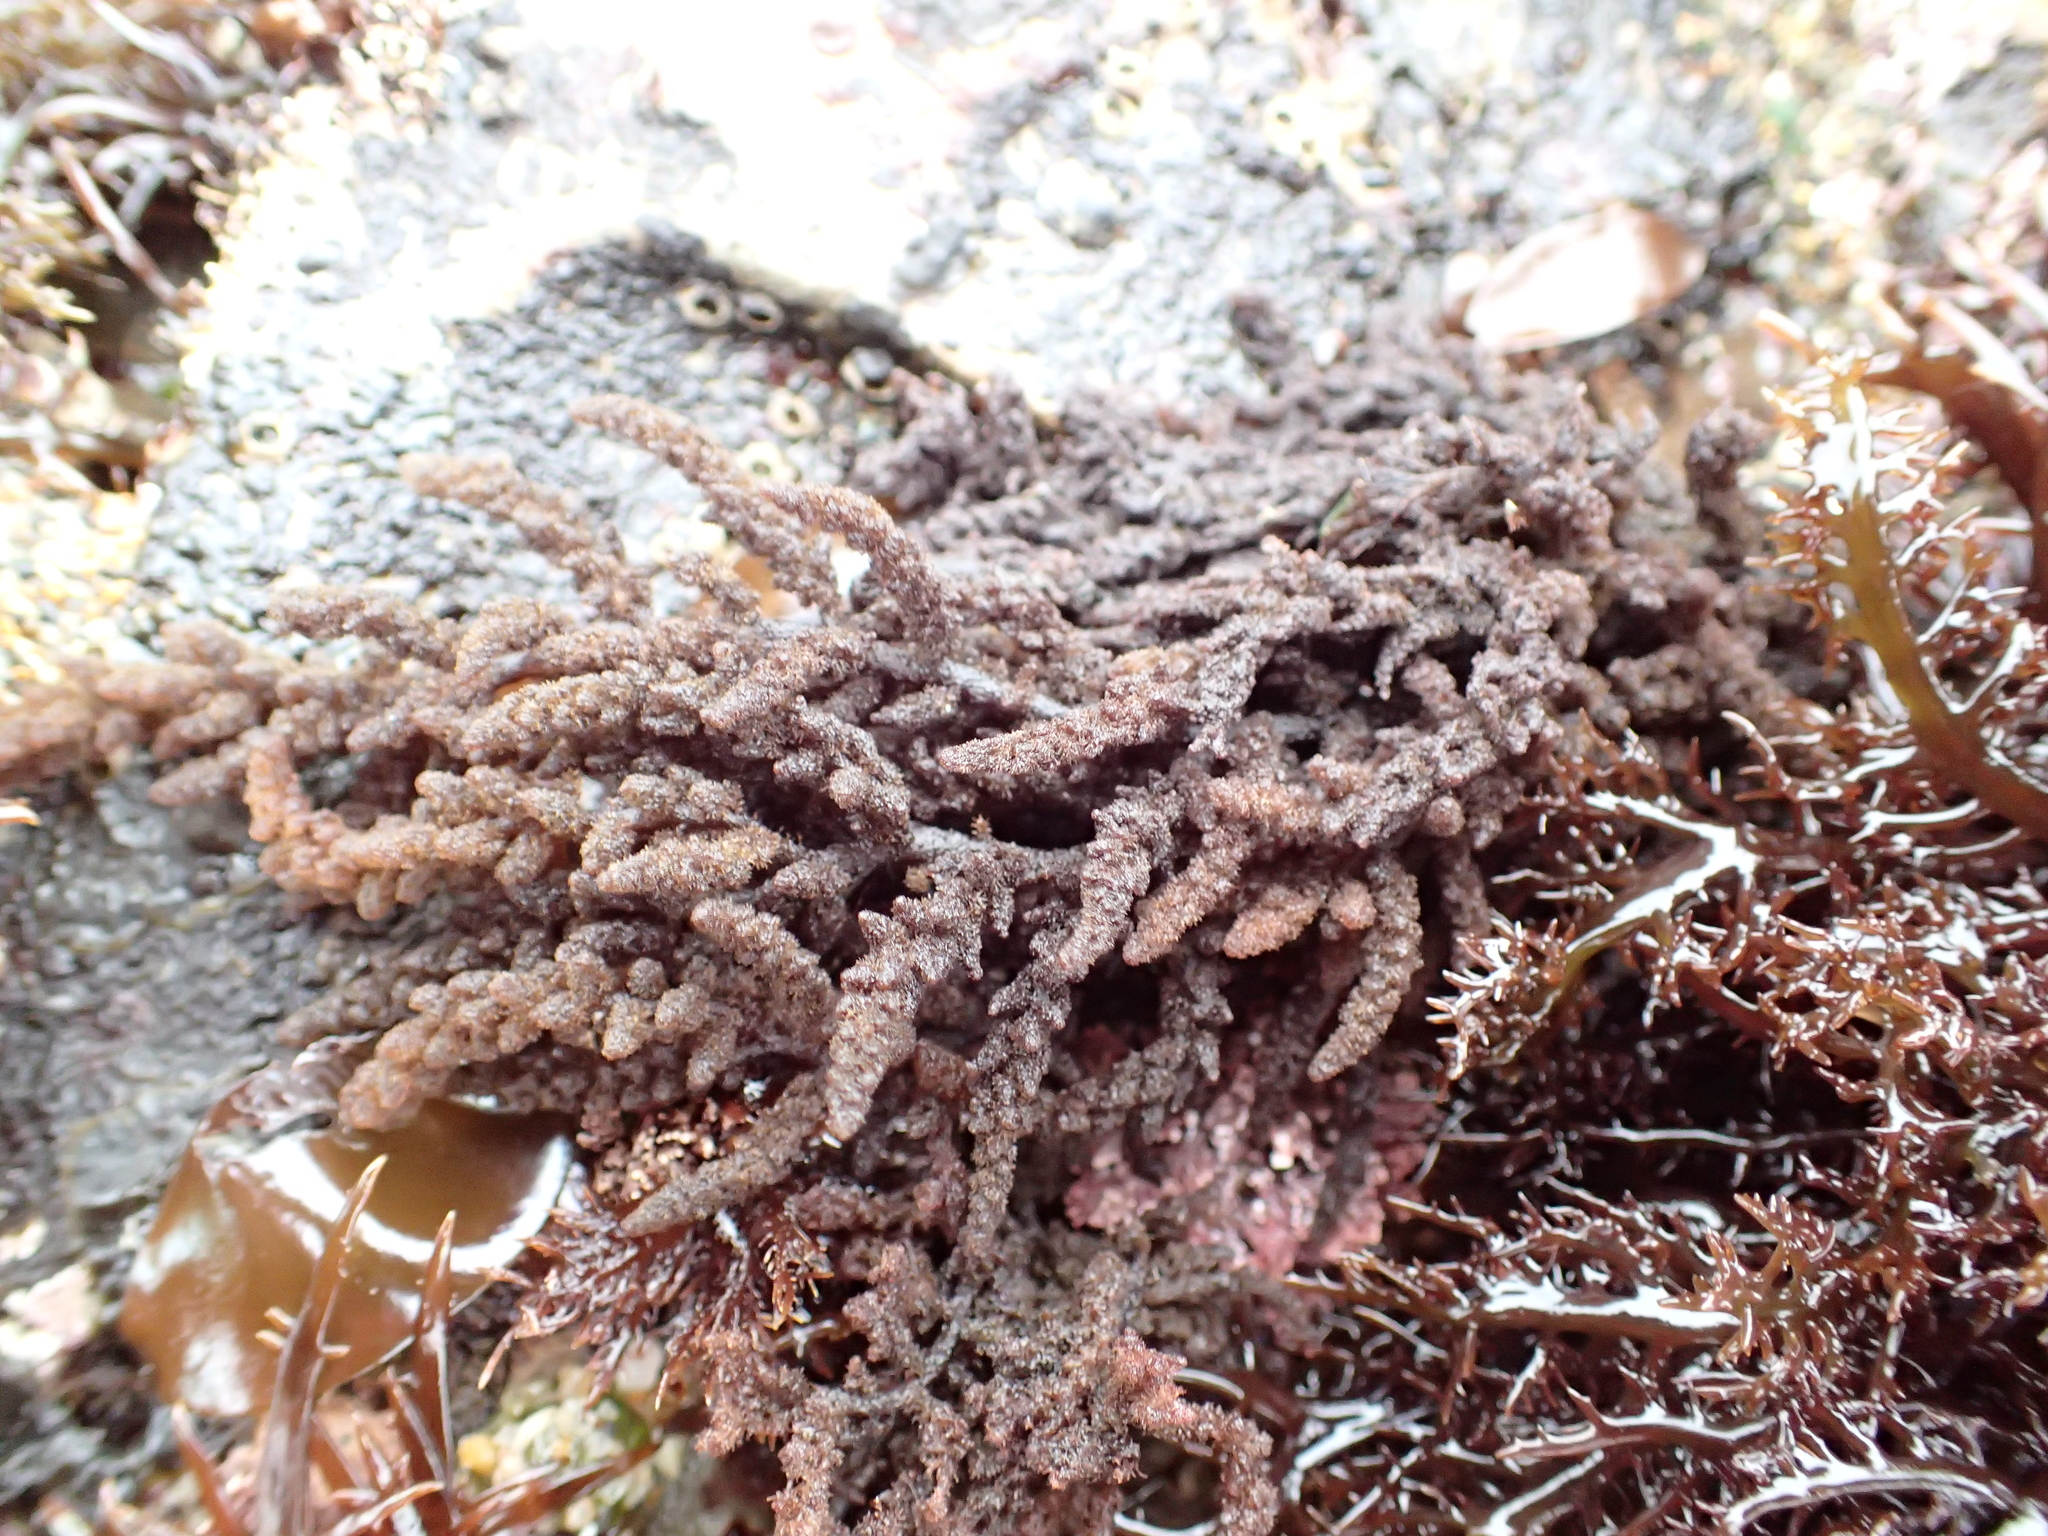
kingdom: Plantae
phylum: Rhodophyta
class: Florideophyceae
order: Ceramiales
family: Callithamniaceae
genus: Callithamnion
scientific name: Callithamnion pikeanum
